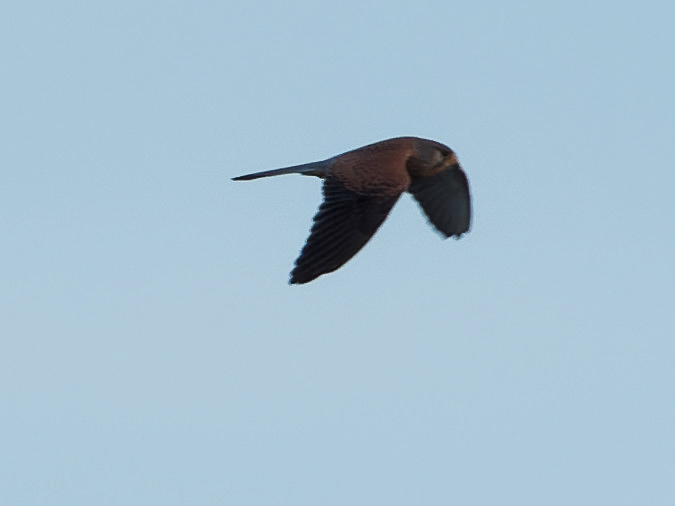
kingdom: Animalia
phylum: Chordata
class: Aves
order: Falconiformes
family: Falconidae
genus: Falco
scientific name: Falco tinnunculus
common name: Common kestrel
